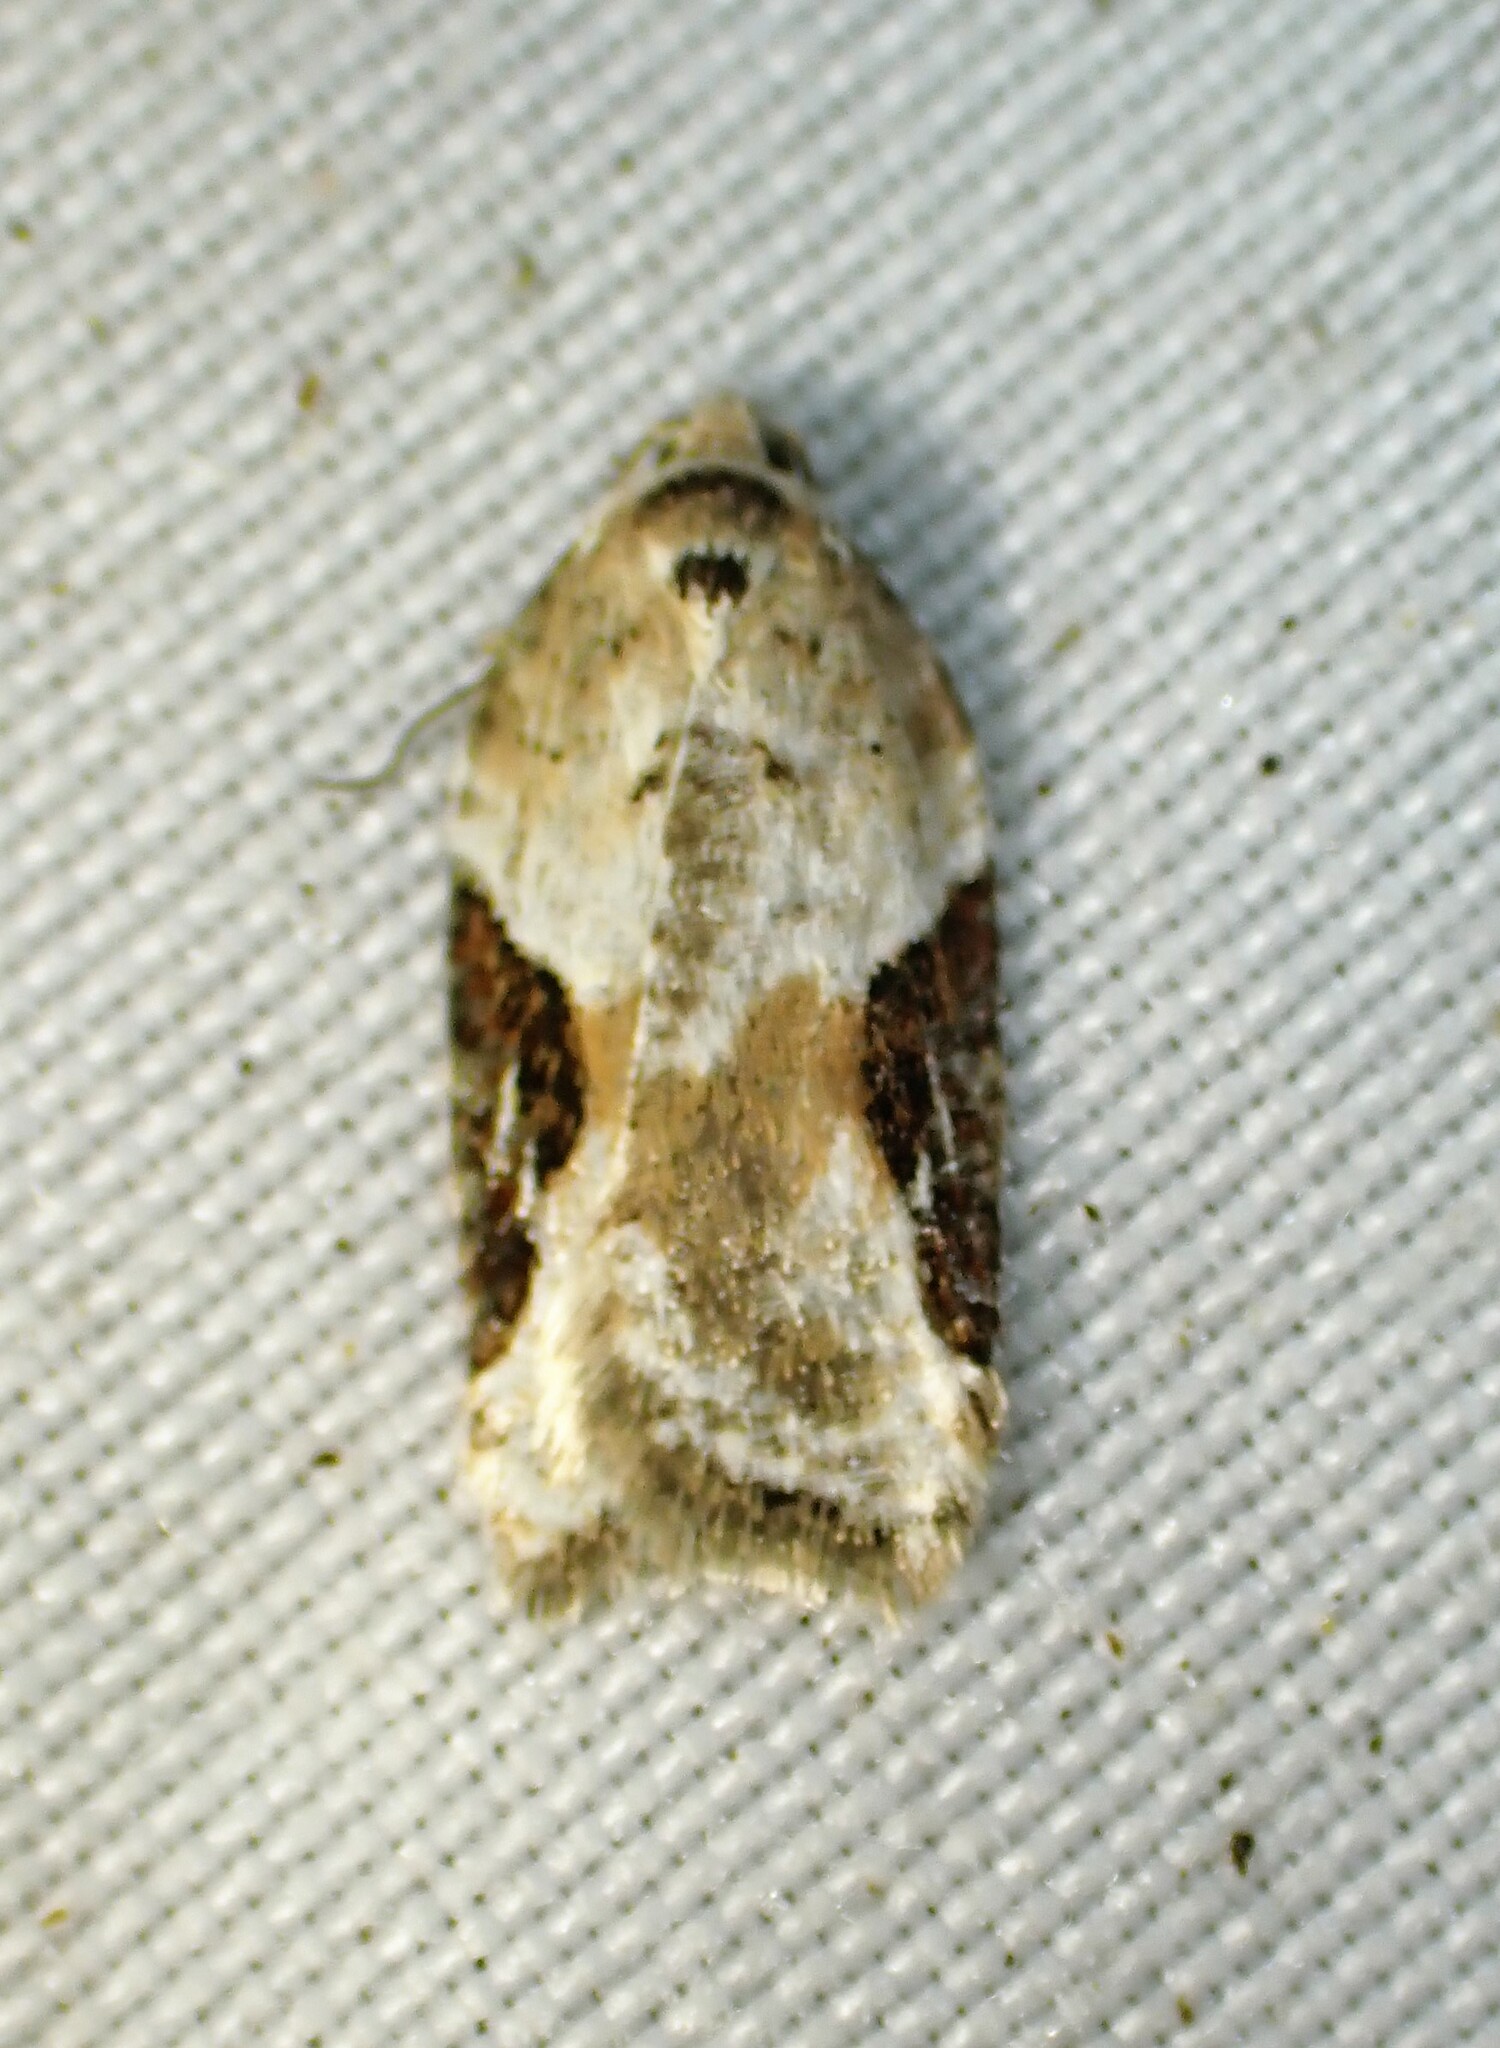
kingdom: Animalia
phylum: Arthropoda
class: Insecta
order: Lepidoptera
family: Tortricidae
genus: Acleris
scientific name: Acleris forbesana
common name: Forbes' acleris moth
